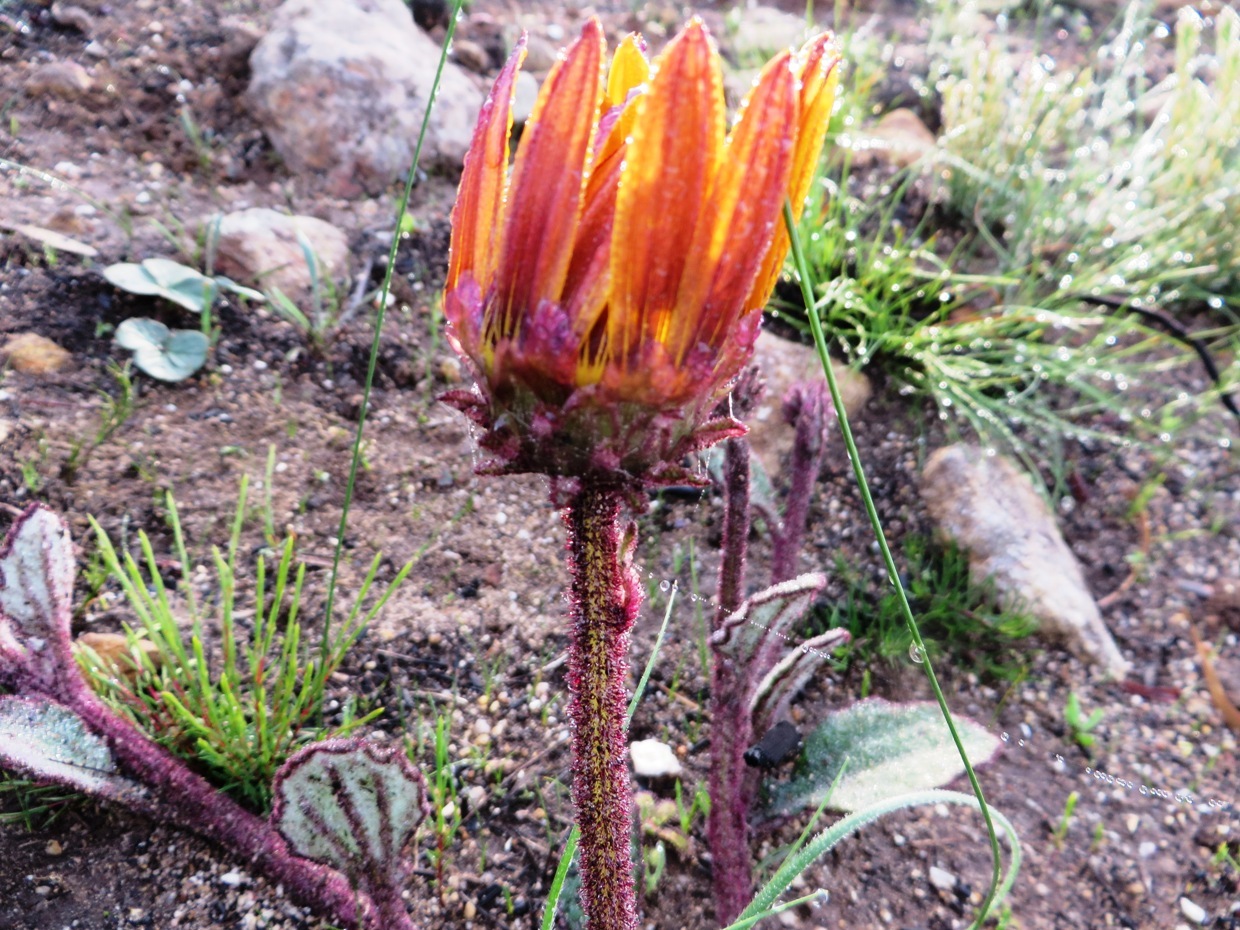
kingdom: Plantae
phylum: Tracheophyta
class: Magnoliopsida
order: Asterales
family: Asteraceae
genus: Arctotis
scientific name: Arctotis angustifolia
